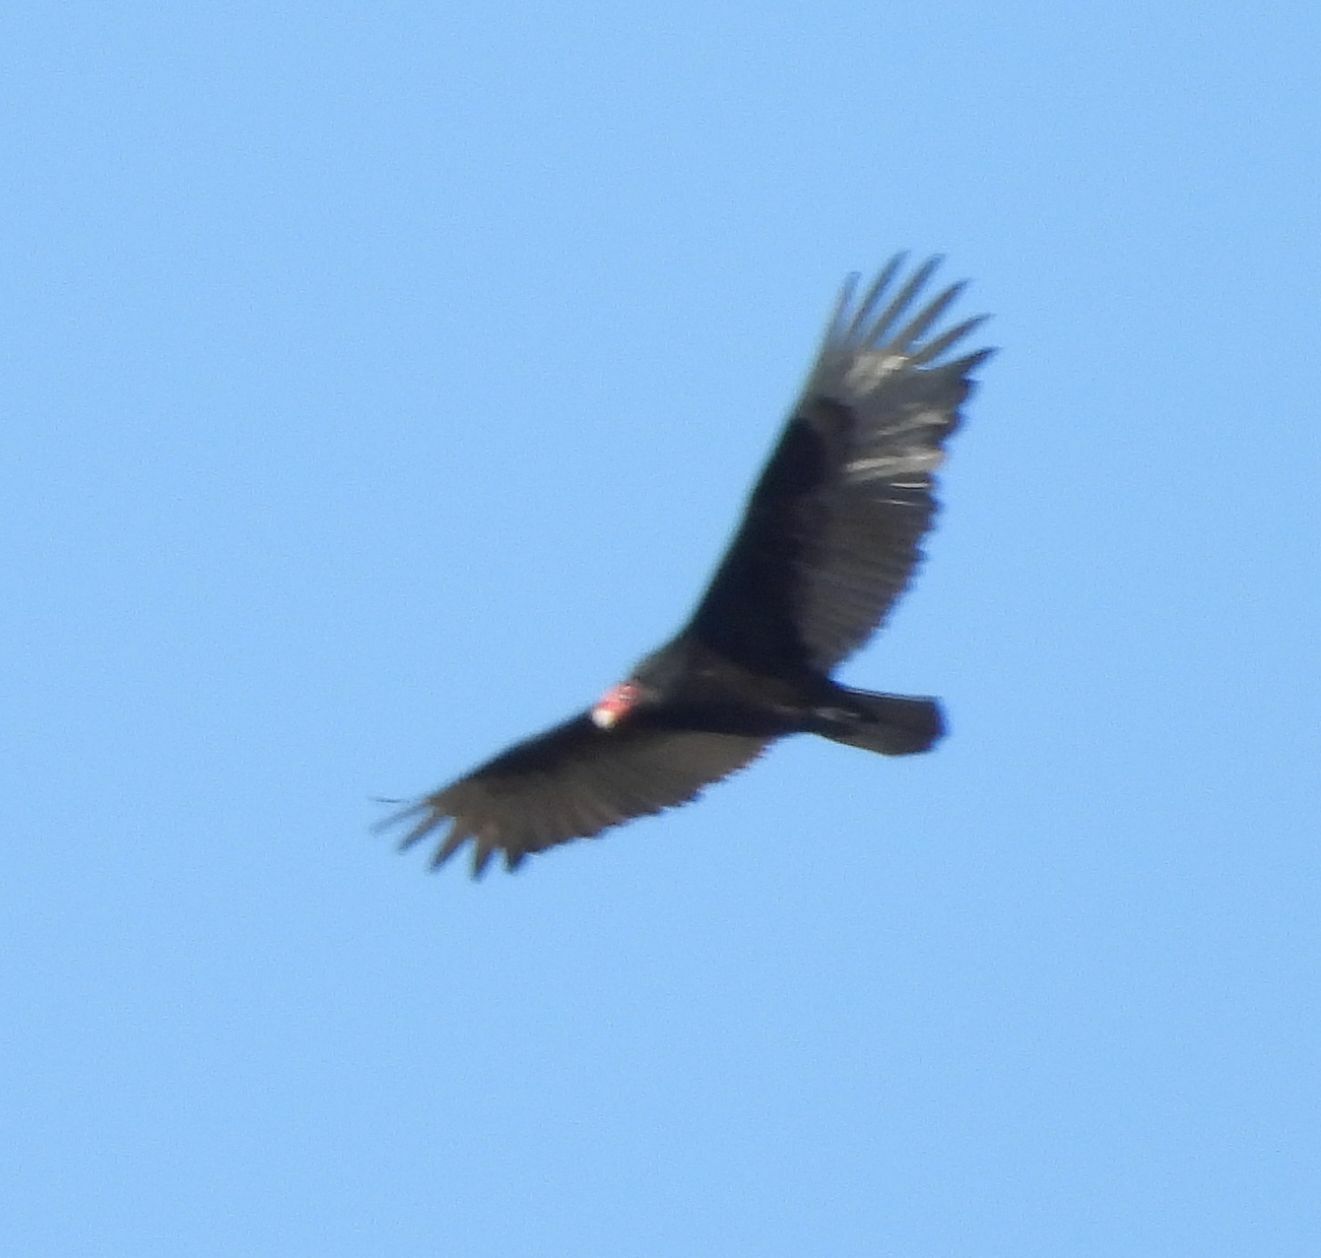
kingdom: Animalia
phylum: Chordata
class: Aves
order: Accipitriformes
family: Cathartidae
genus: Cathartes
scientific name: Cathartes aura
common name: Turkey vulture
